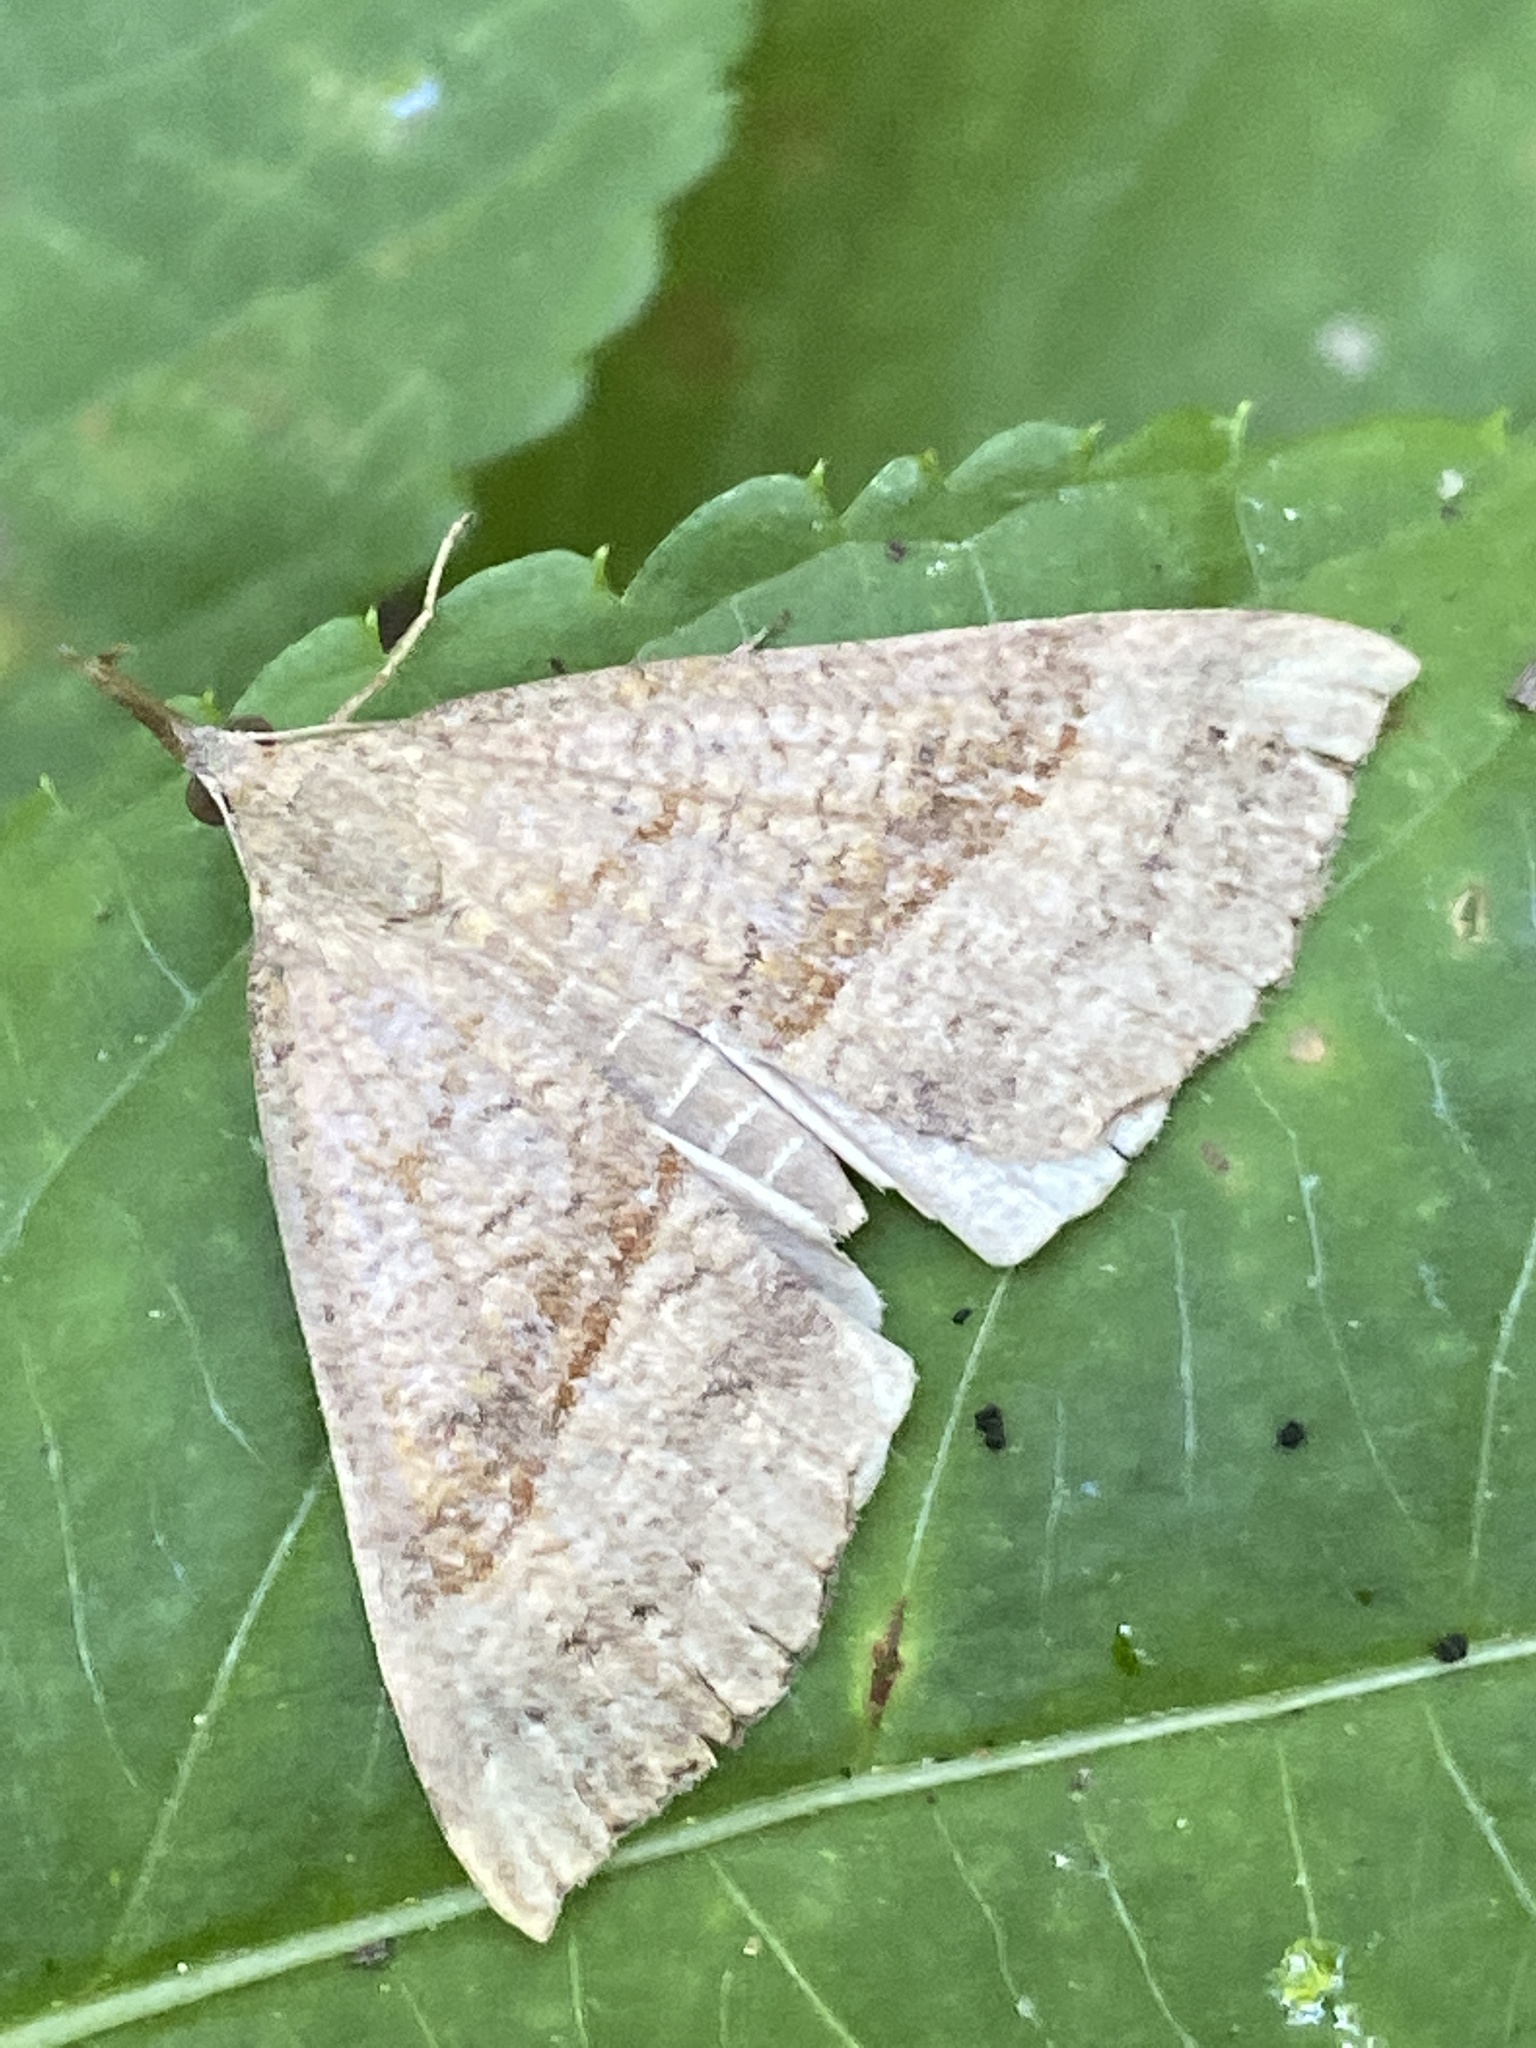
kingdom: Animalia
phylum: Arthropoda
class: Insecta
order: Lepidoptera
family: Erebidae
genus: Hypena
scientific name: Hypena proboscidalis
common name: Snout
